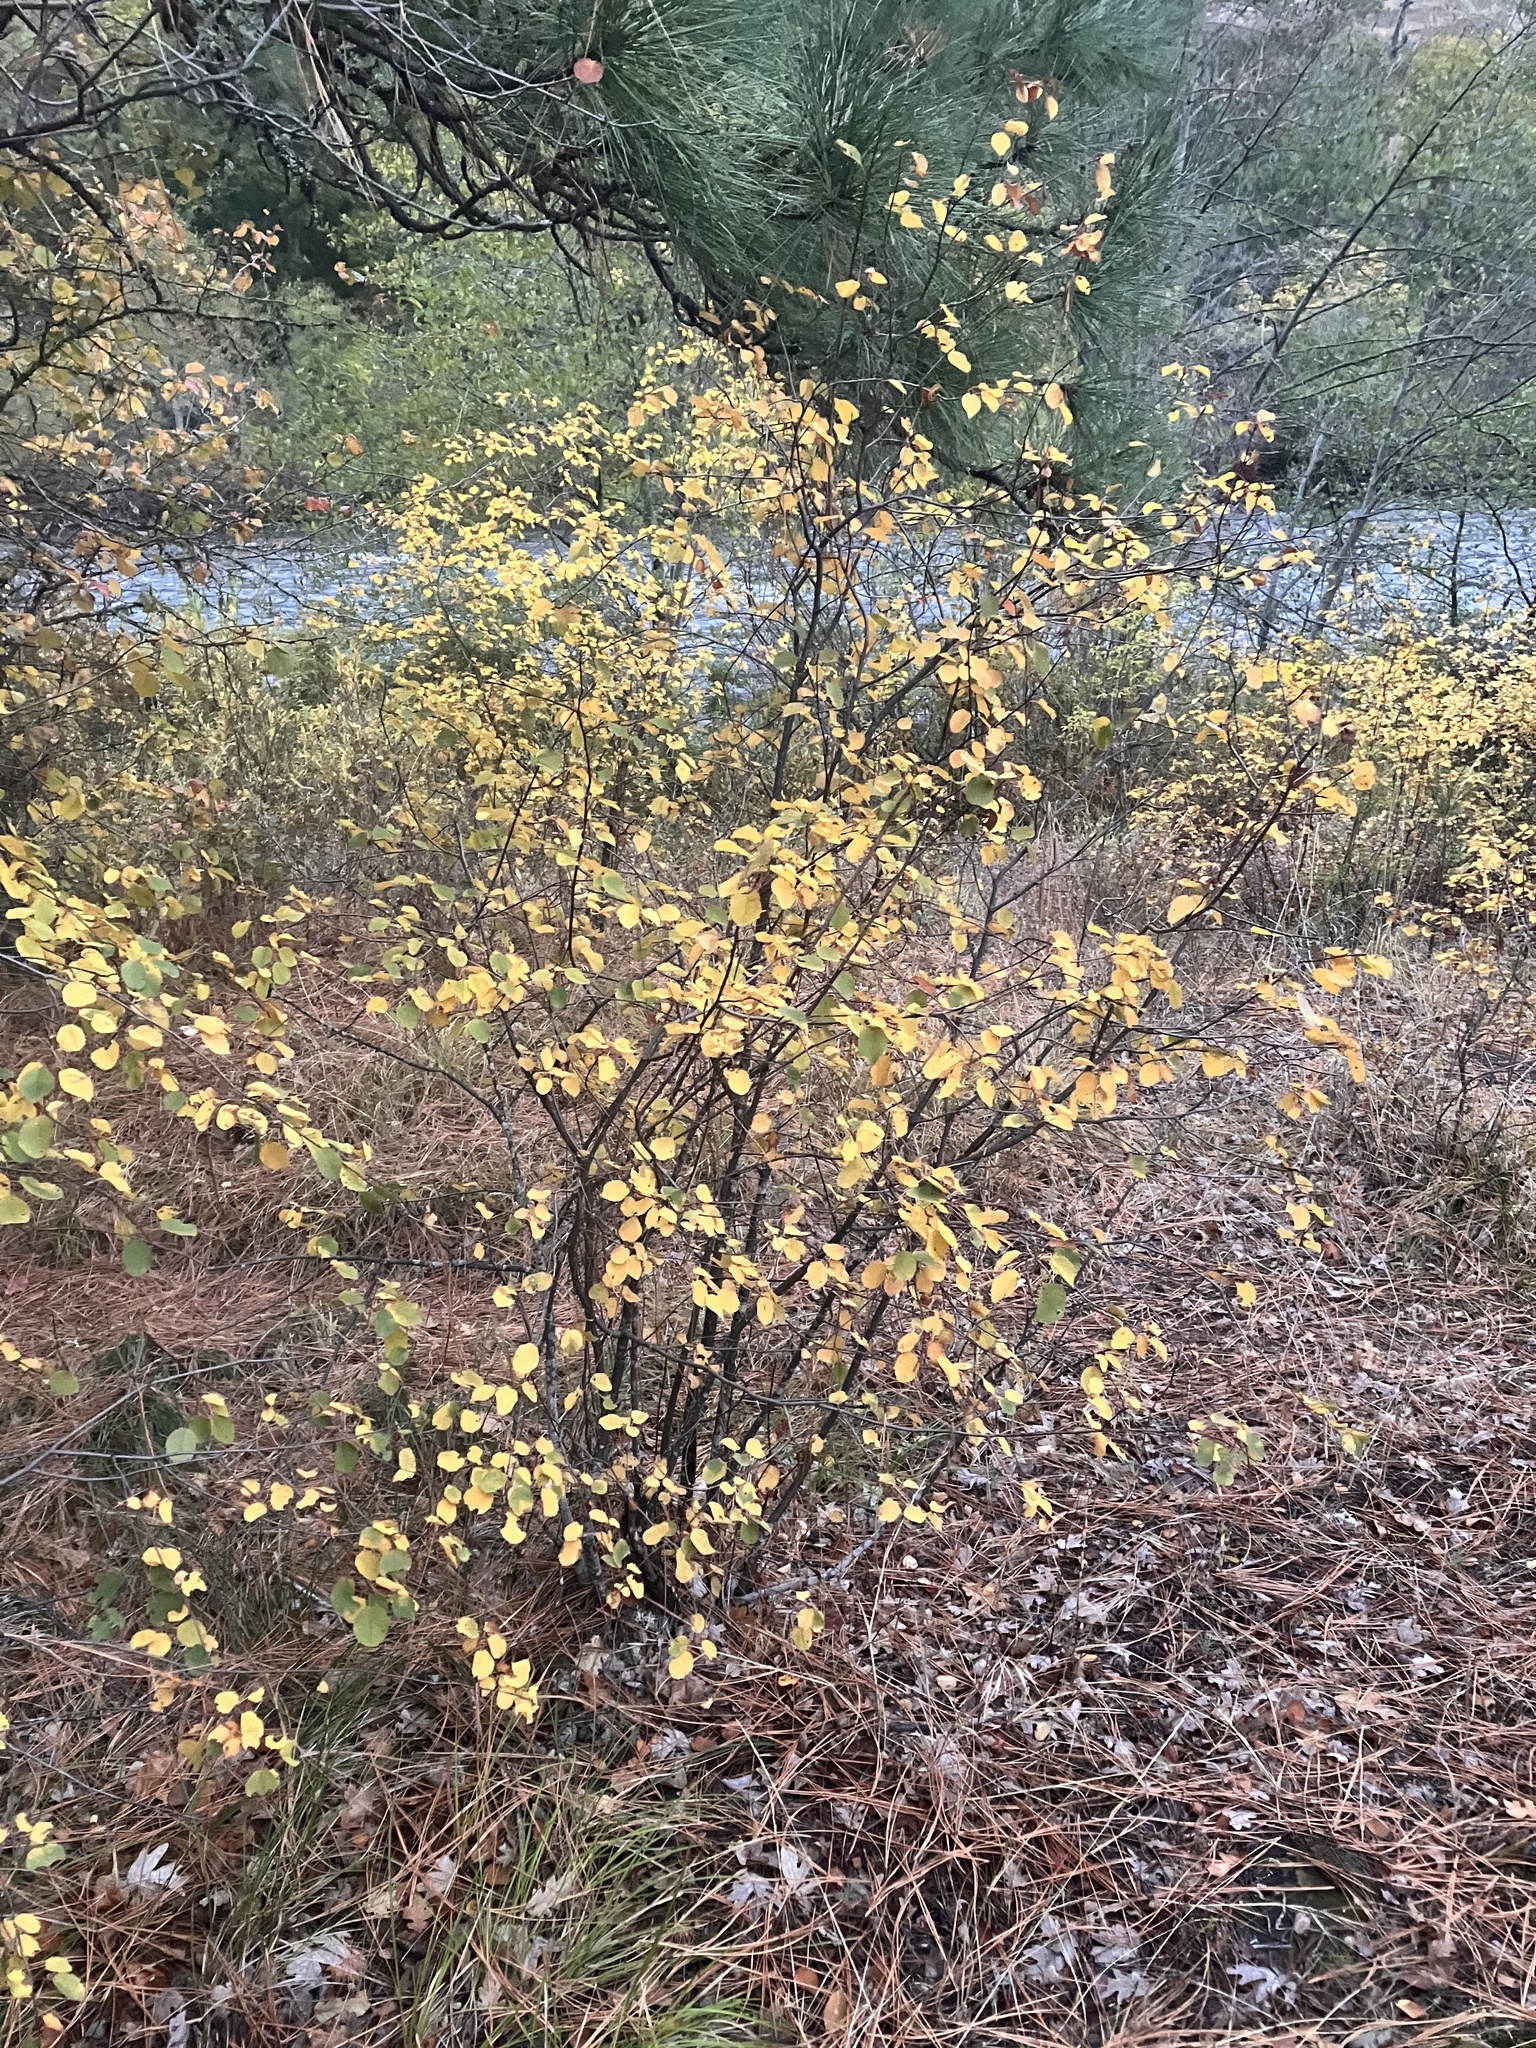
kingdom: Plantae
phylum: Tracheophyta
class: Magnoliopsida
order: Rosales
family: Rosaceae
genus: Amelanchier
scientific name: Amelanchier alnifolia
